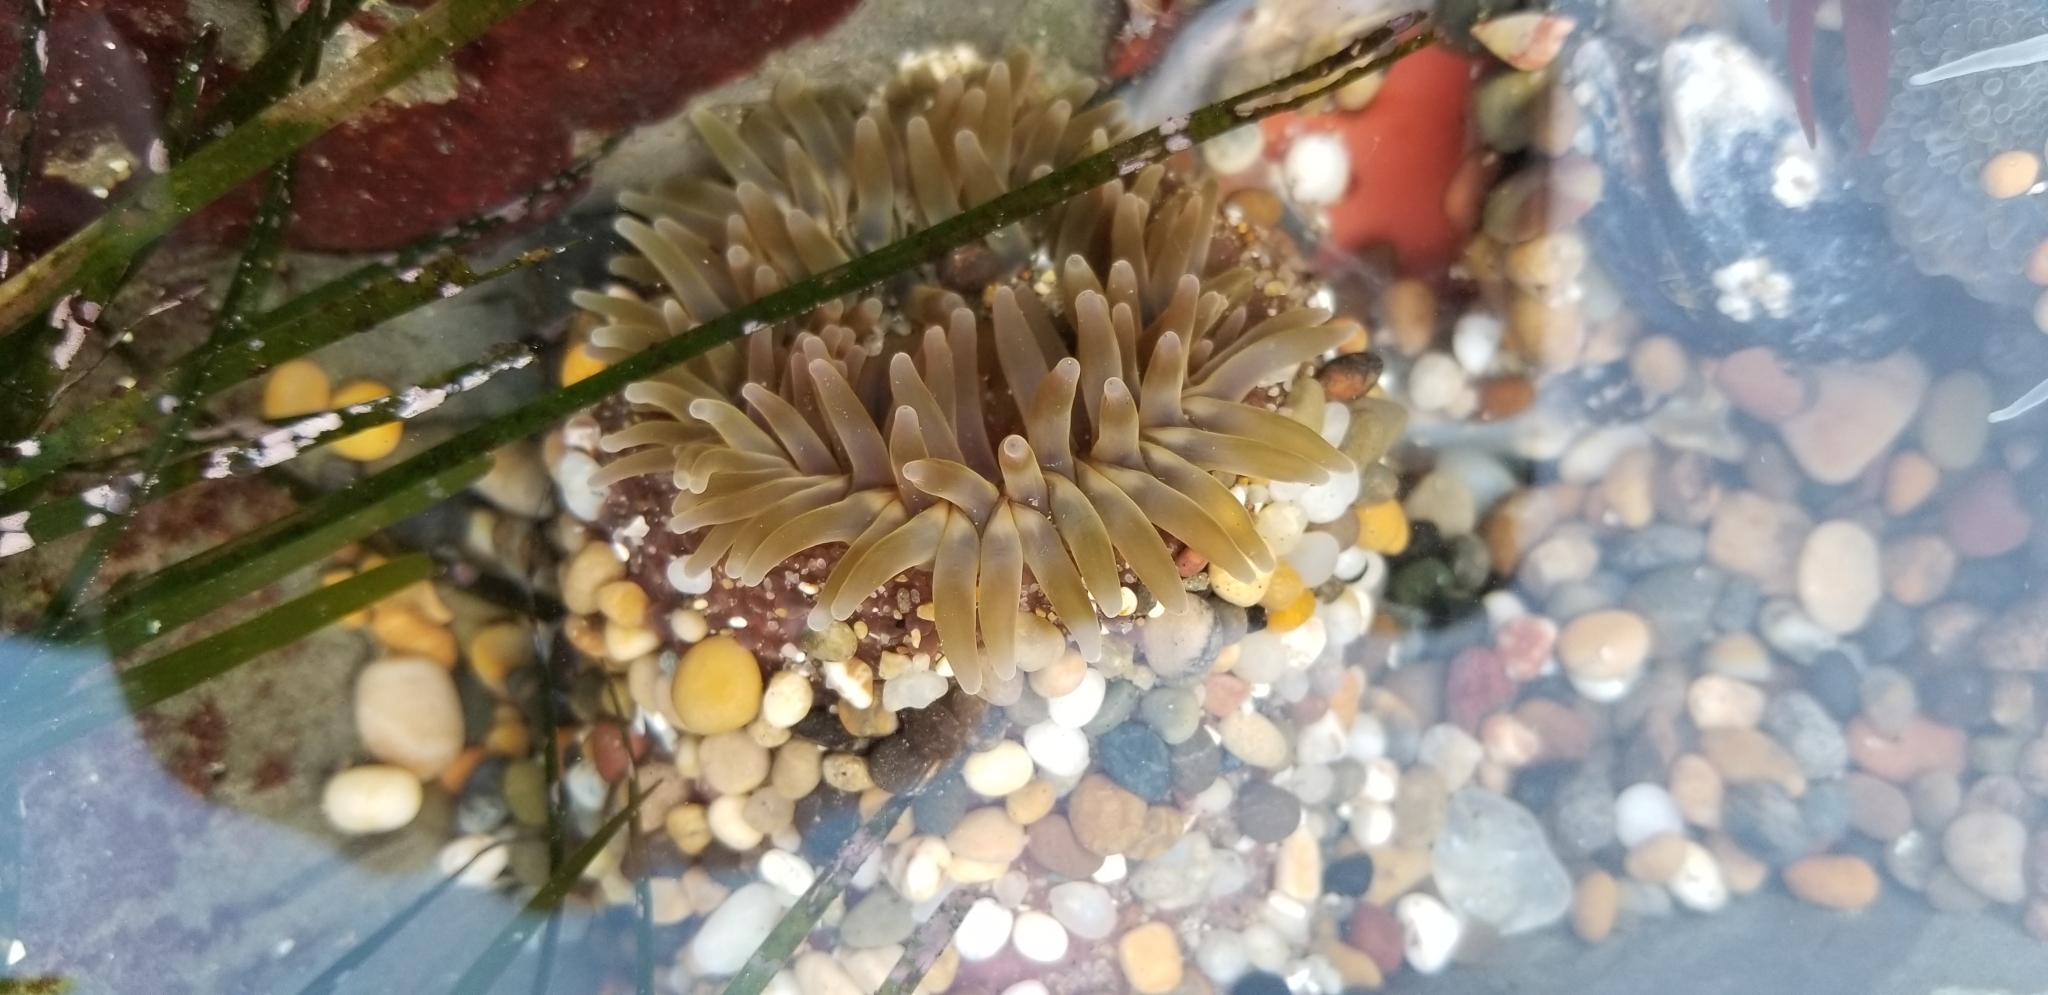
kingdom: Animalia
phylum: Cnidaria
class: Anthozoa
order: Actiniaria
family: Actiniidae
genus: Urticina
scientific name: Urticina clandestina
